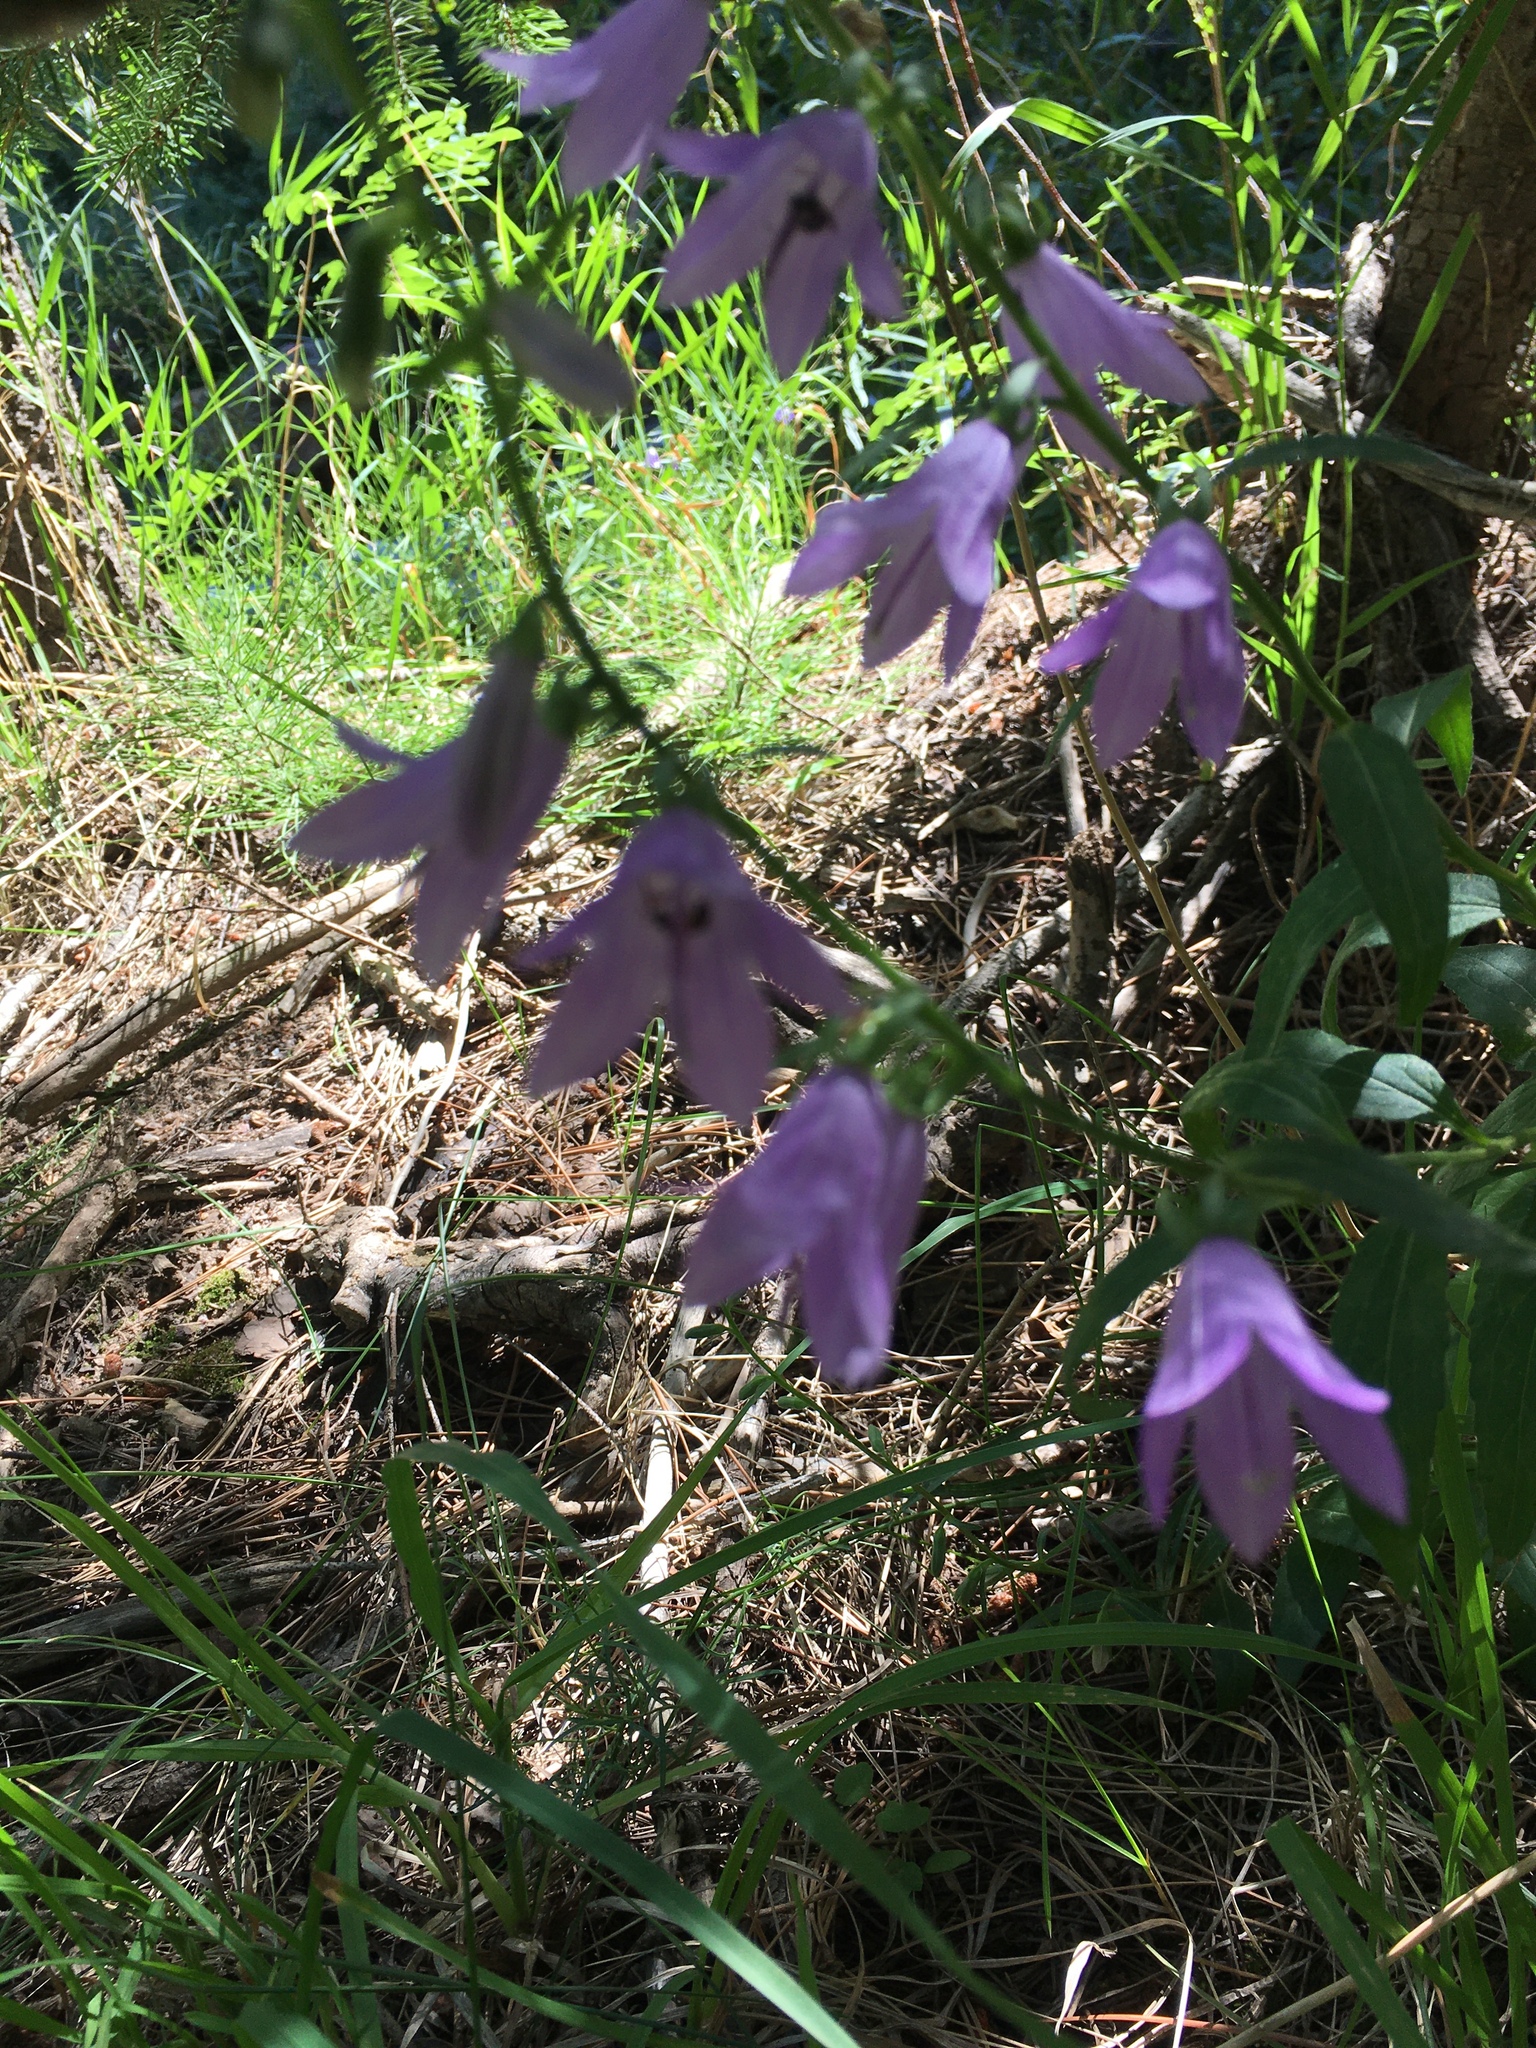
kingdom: Plantae
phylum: Tracheophyta
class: Magnoliopsida
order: Asterales
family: Campanulaceae
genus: Campanula
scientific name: Campanula petiolata
